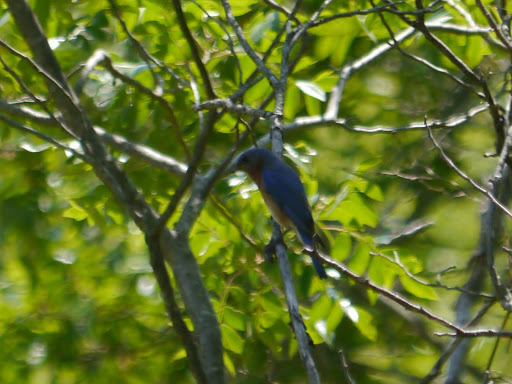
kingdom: Animalia
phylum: Chordata
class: Aves
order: Passeriformes
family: Turdidae
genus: Sialia
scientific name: Sialia sialis
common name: Eastern bluebird
